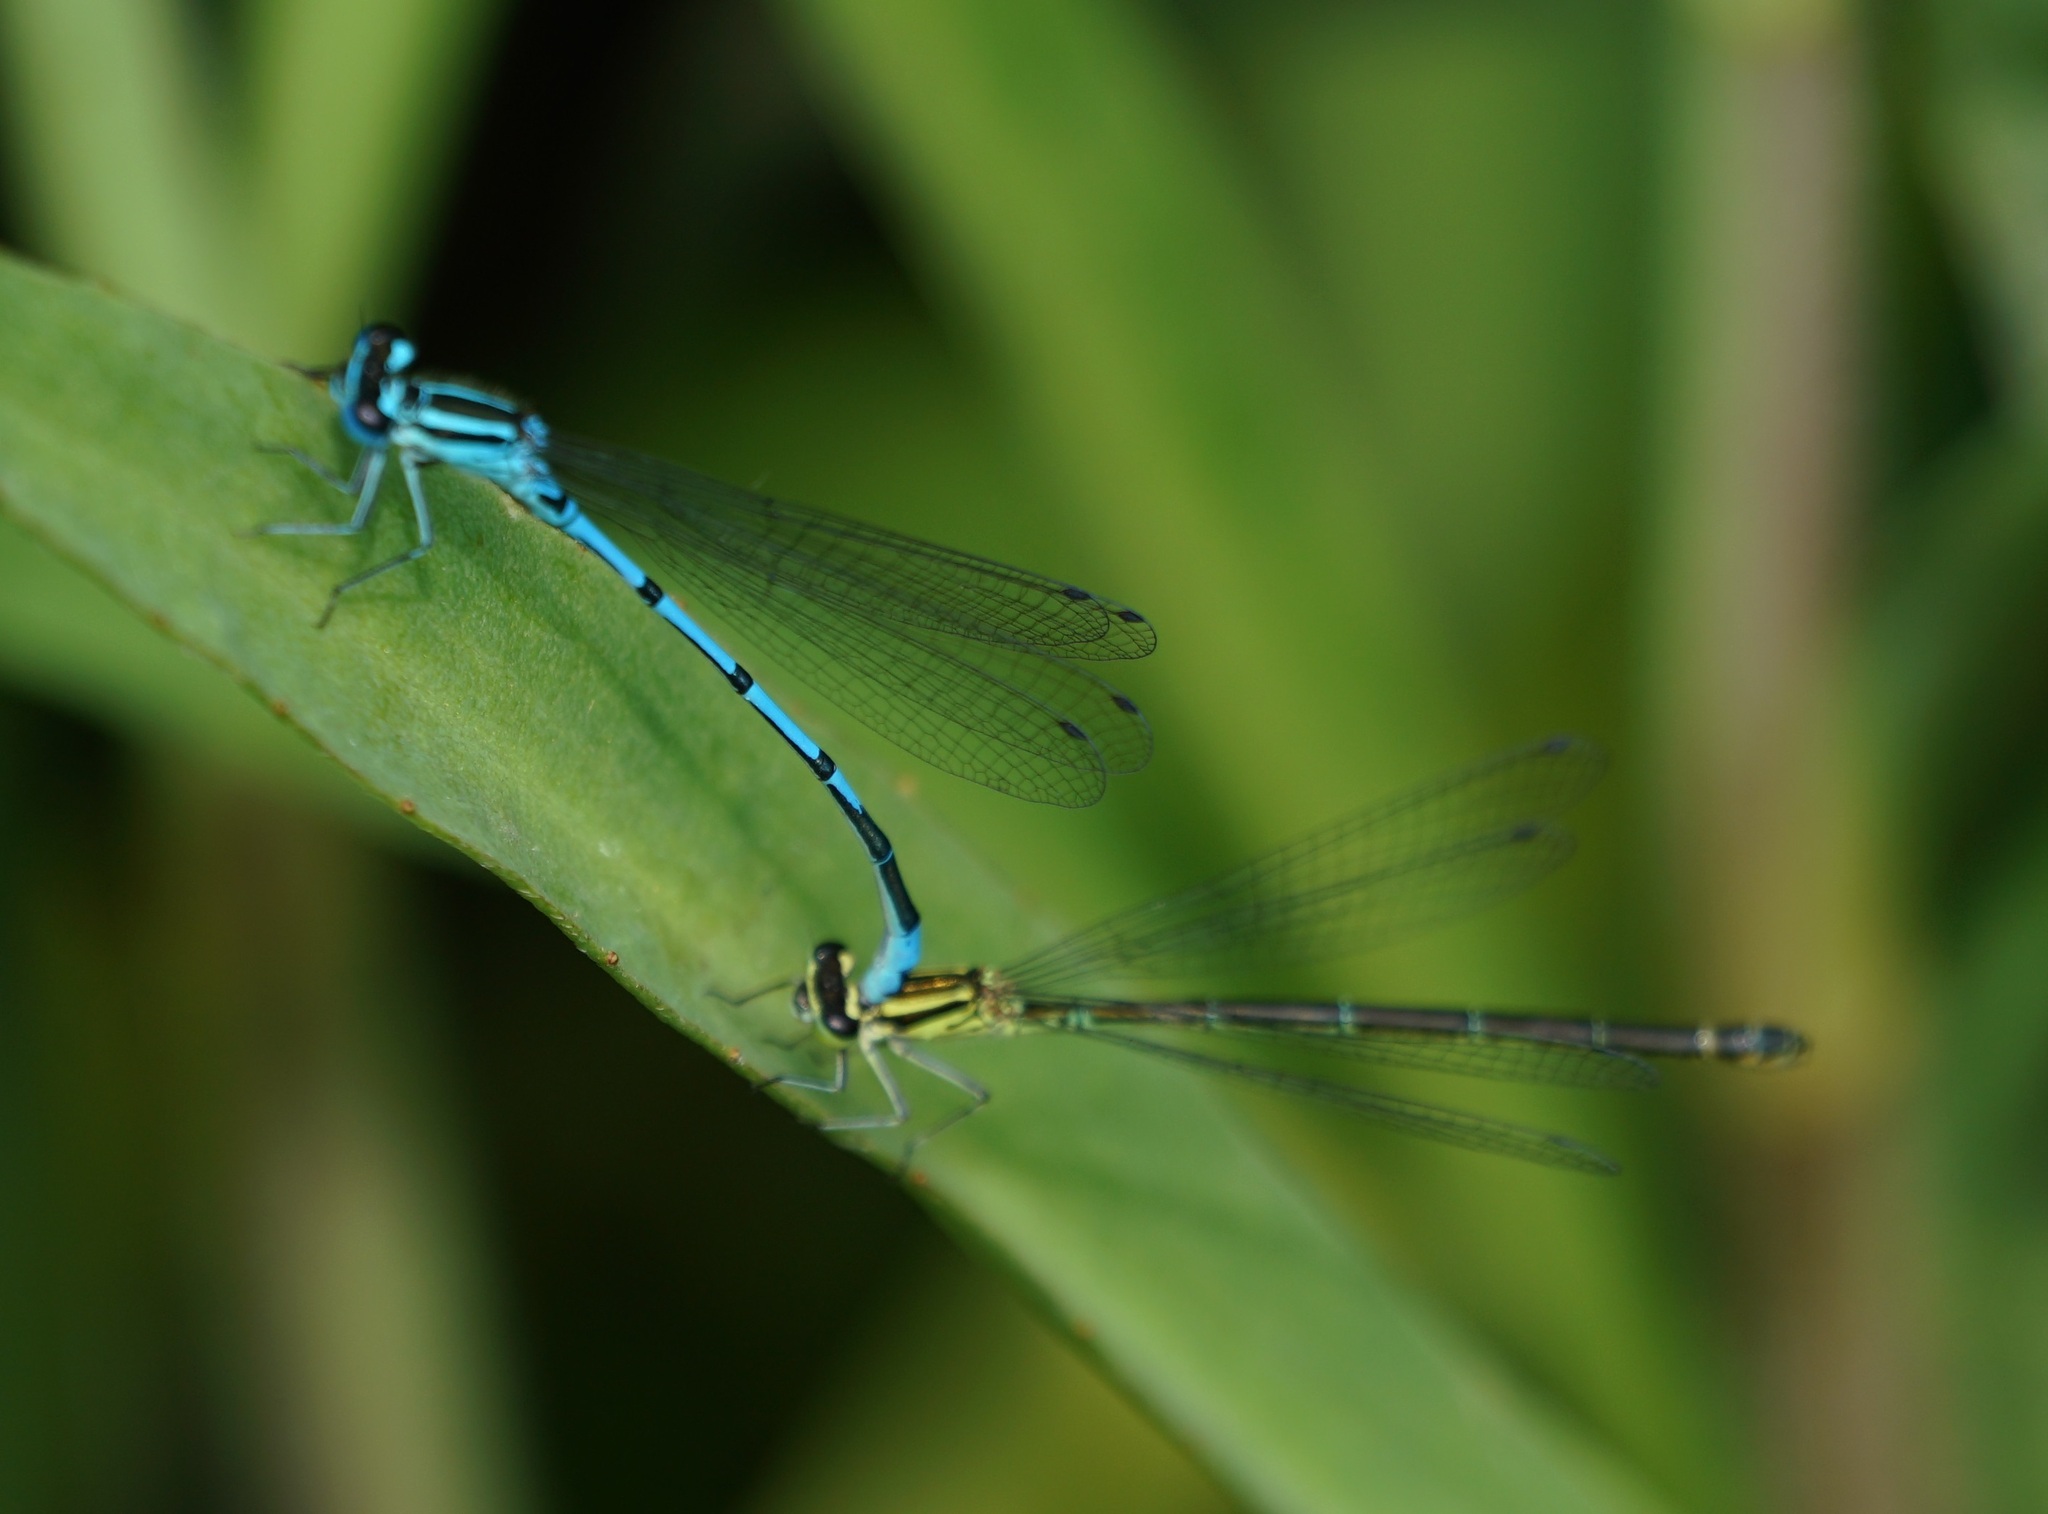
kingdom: Animalia
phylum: Arthropoda
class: Insecta
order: Odonata
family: Coenagrionidae
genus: Coenagrion
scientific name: Coenagrion puella
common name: Azure damselfly
